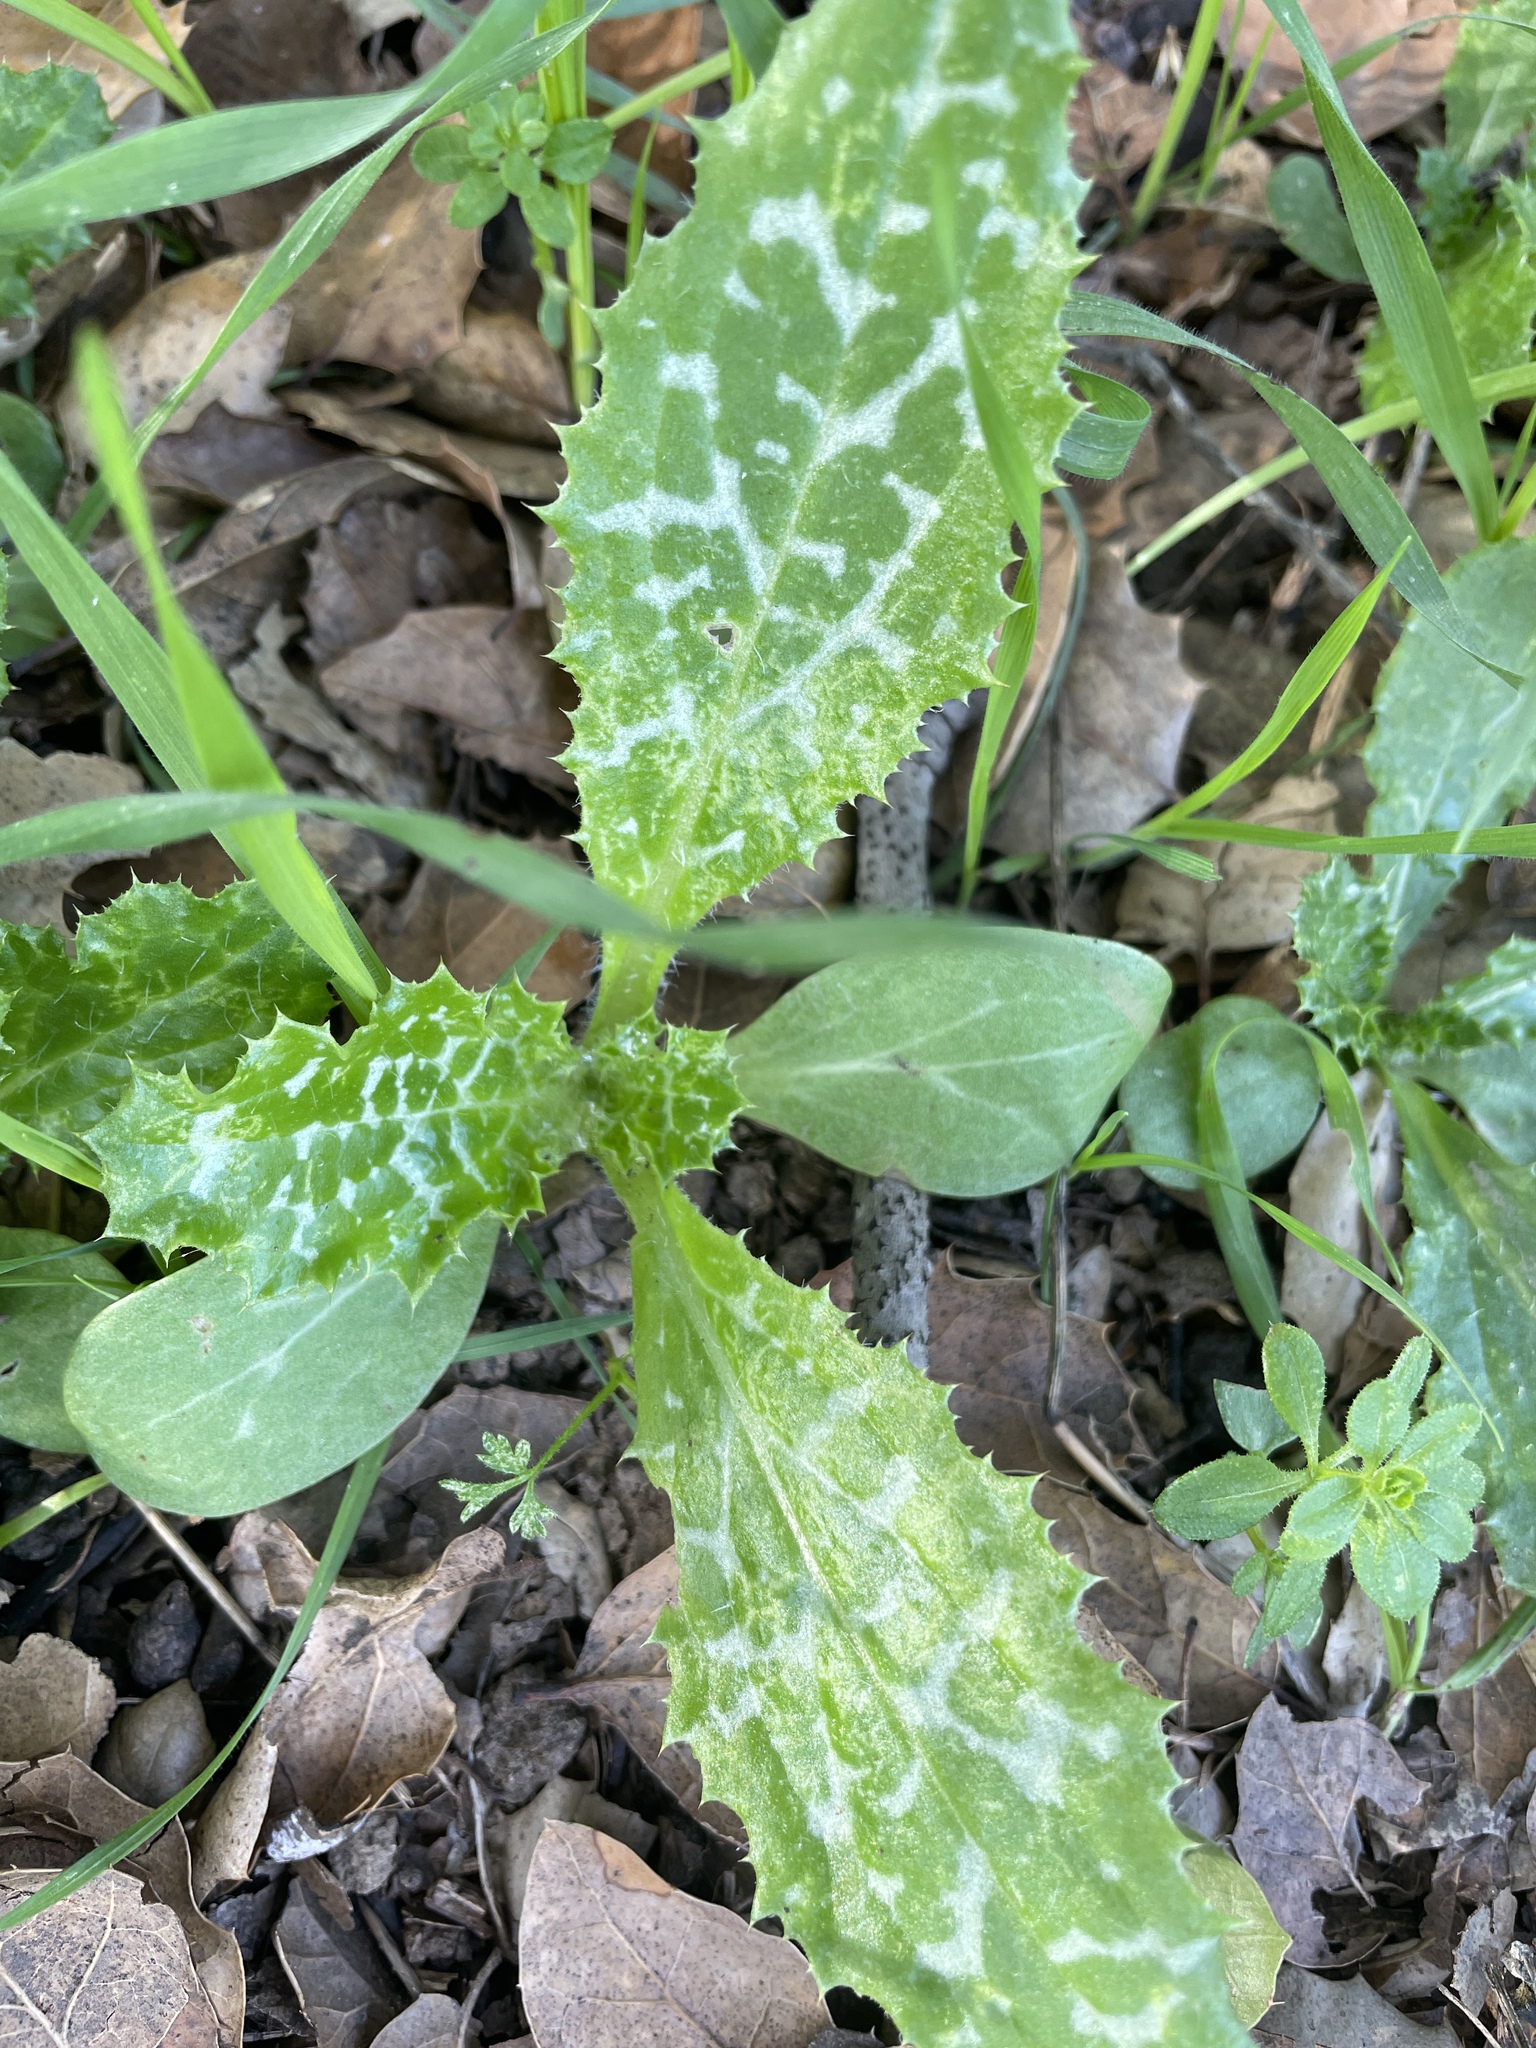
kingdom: Plantae
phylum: Tracheophyta
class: Magnoliopsida
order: Asterales
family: Asteraceae
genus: Silybum
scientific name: Silybum marianum
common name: Milk thistle
